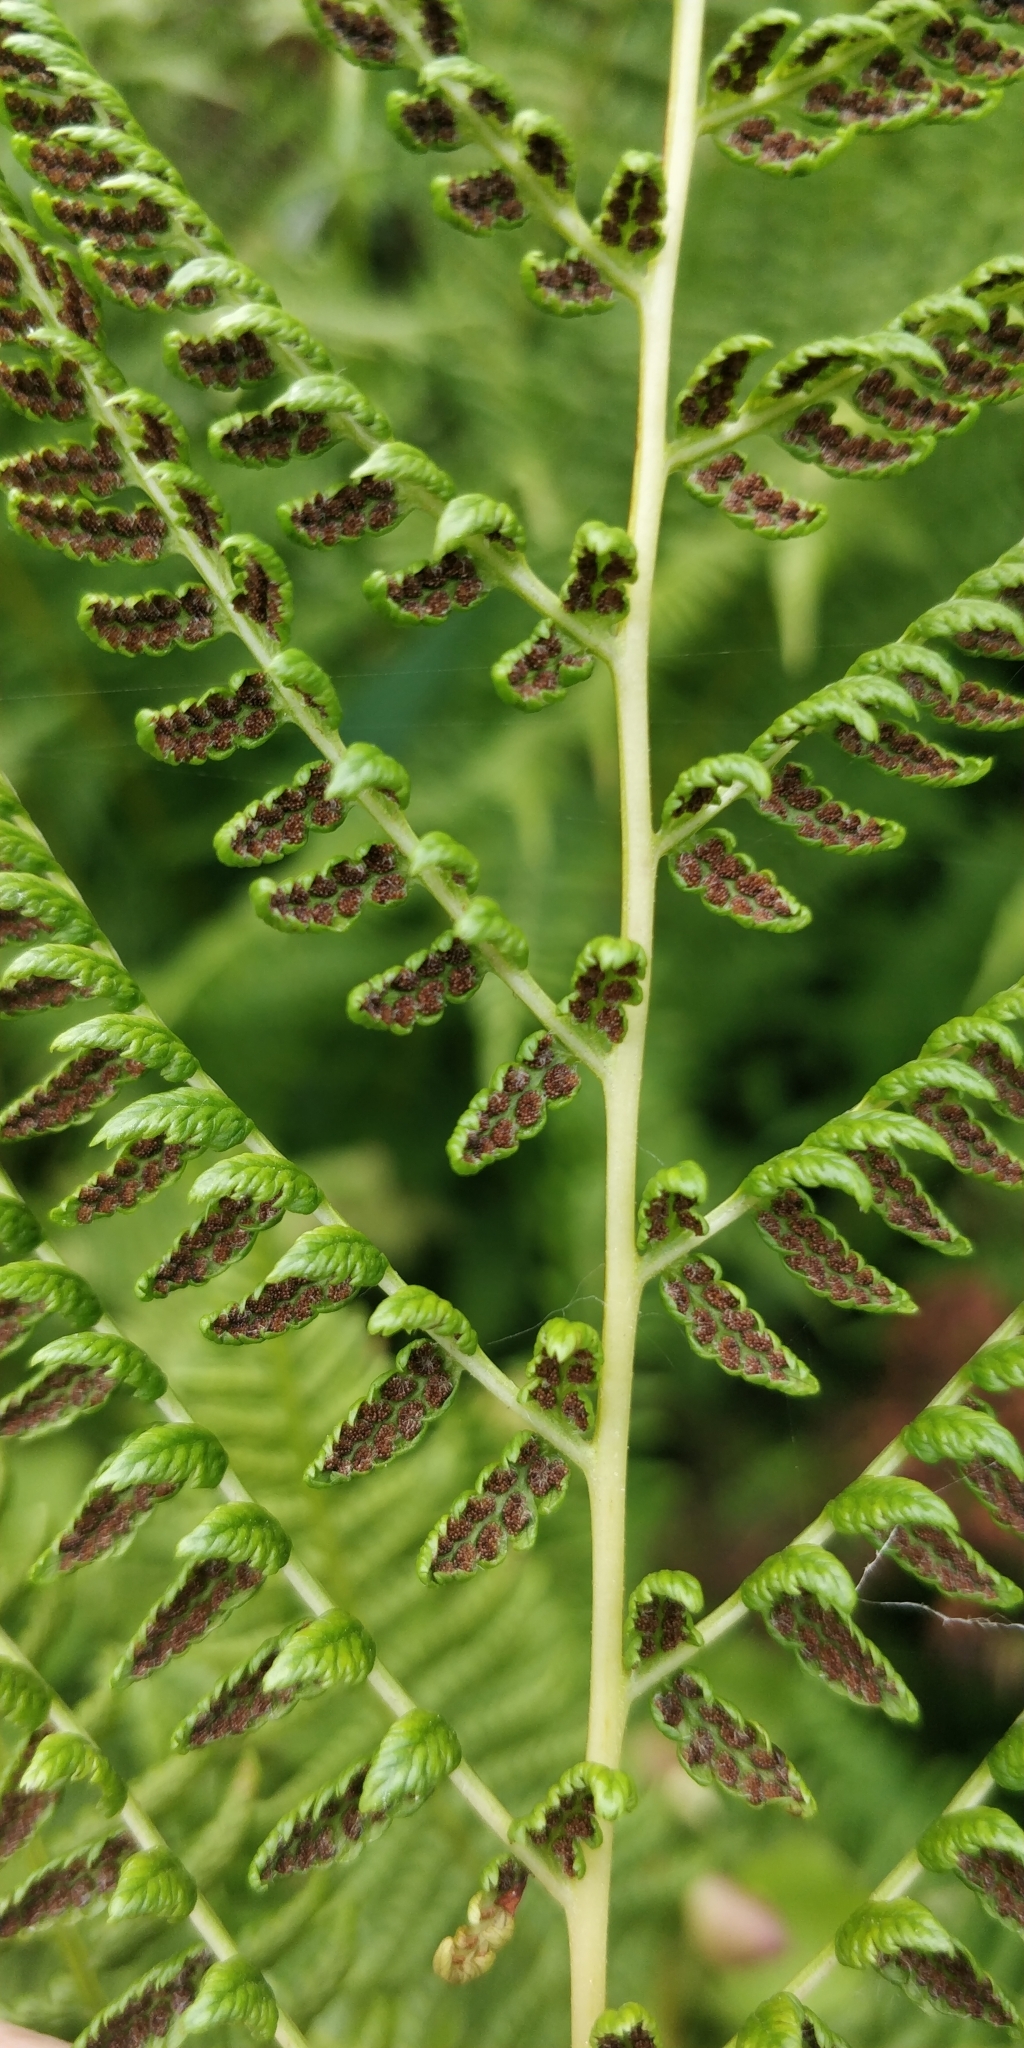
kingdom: Plantae
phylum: Tracheophyta
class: Polypodiopsida
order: Polypodiales
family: Athyriaceae
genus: Athyrium
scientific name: Athyrium filix-femina
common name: Lady fern
